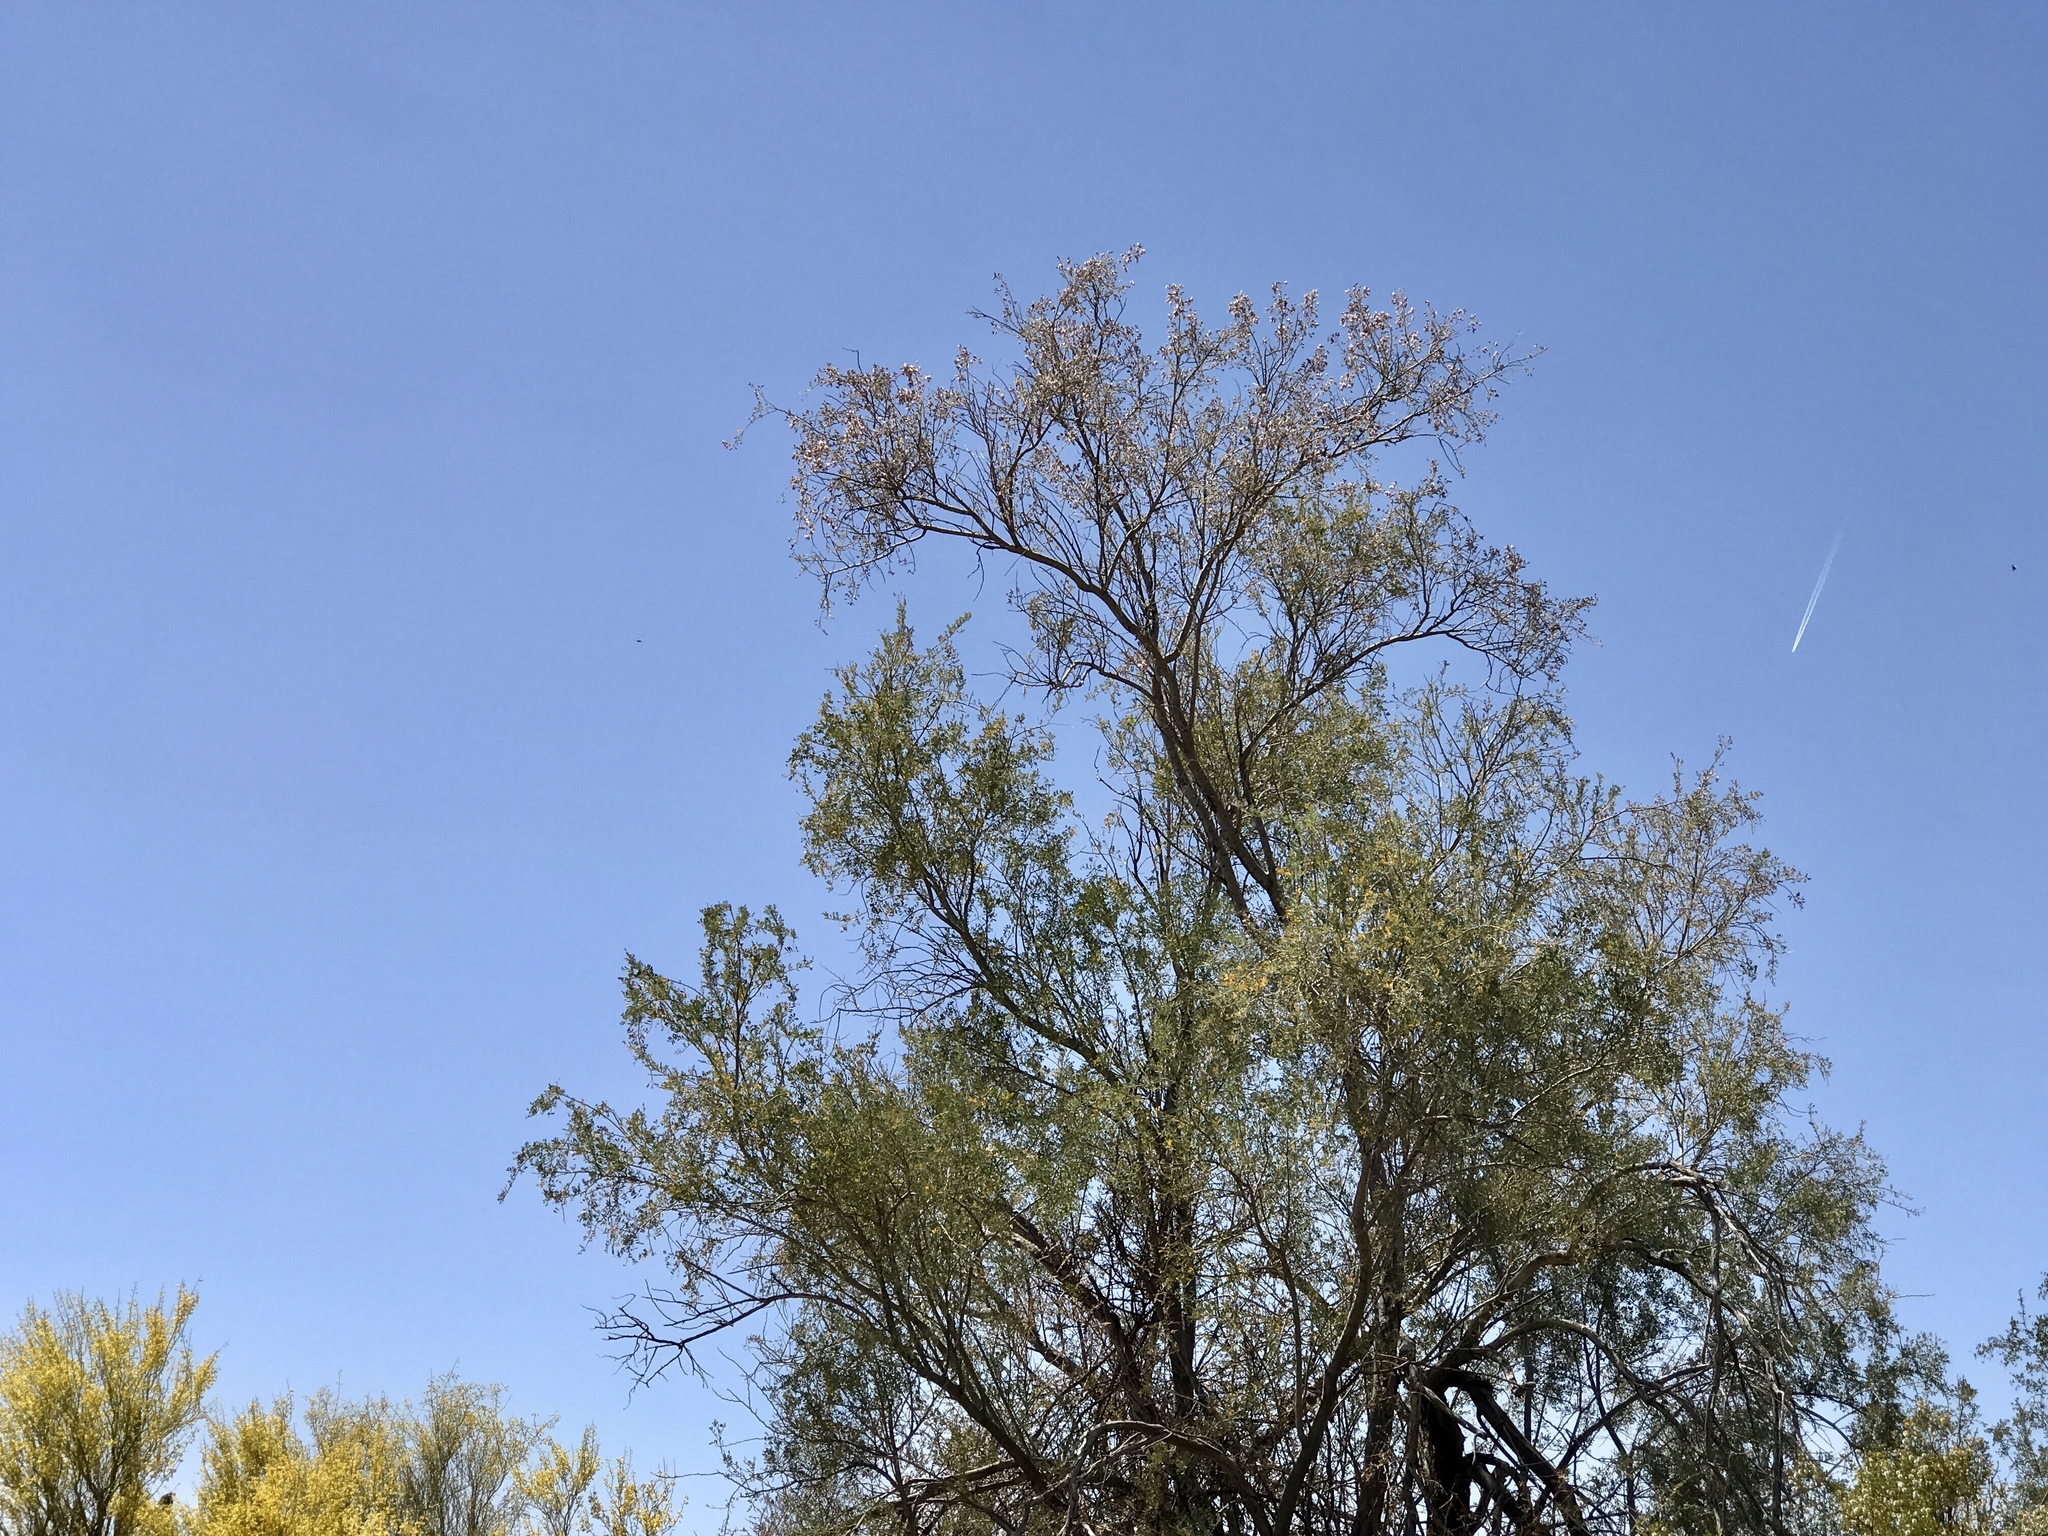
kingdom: Plantae
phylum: Tracheophyta
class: Magnoliopsida
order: Fabales
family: Fabaceae
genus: Olneya
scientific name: Olneya tesota
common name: Desert ironwood
